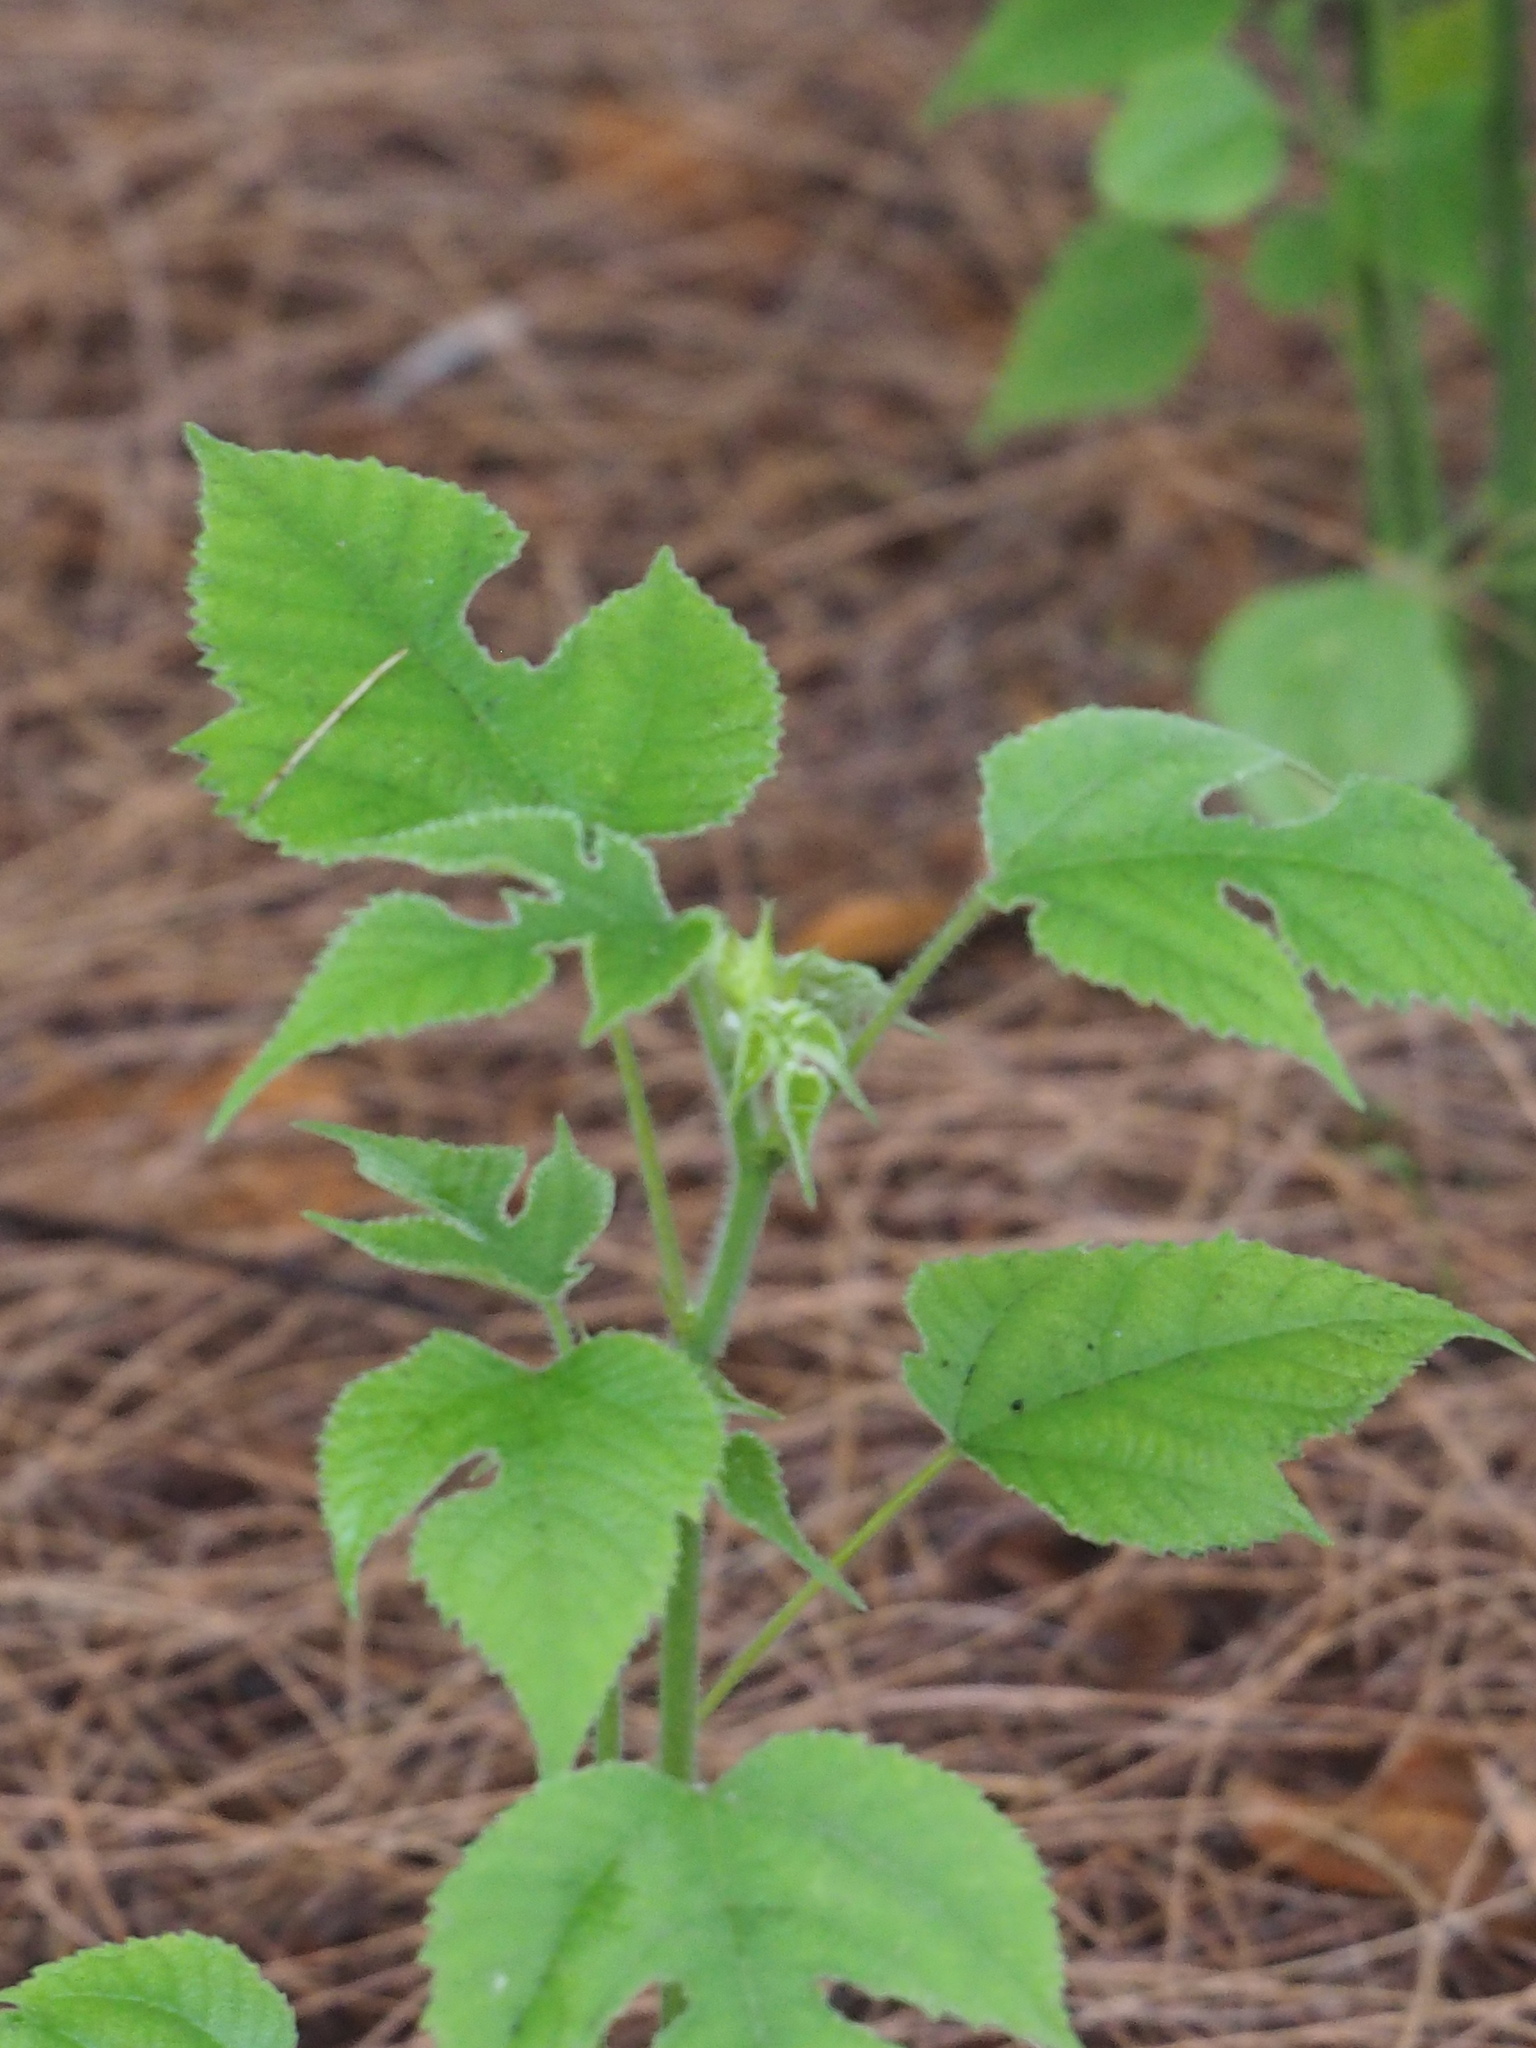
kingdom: Plantae
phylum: Tracheophyta
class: Magnoliopsida
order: Rosales
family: Moraceae
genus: Broussonetia
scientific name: Broussonetia papyrifera
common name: Paper mulberry
